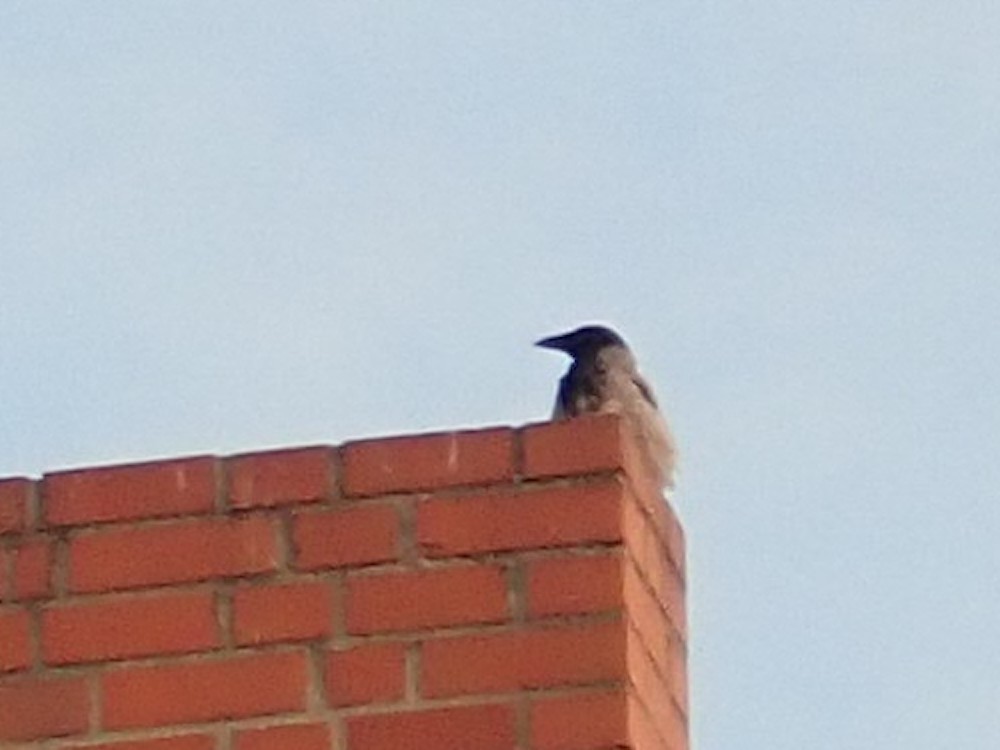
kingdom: Animalia
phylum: Chordata
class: Aves
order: Passeriformes
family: Corvidae
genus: Corvus
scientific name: Corvus cornix
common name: Hooded crow
